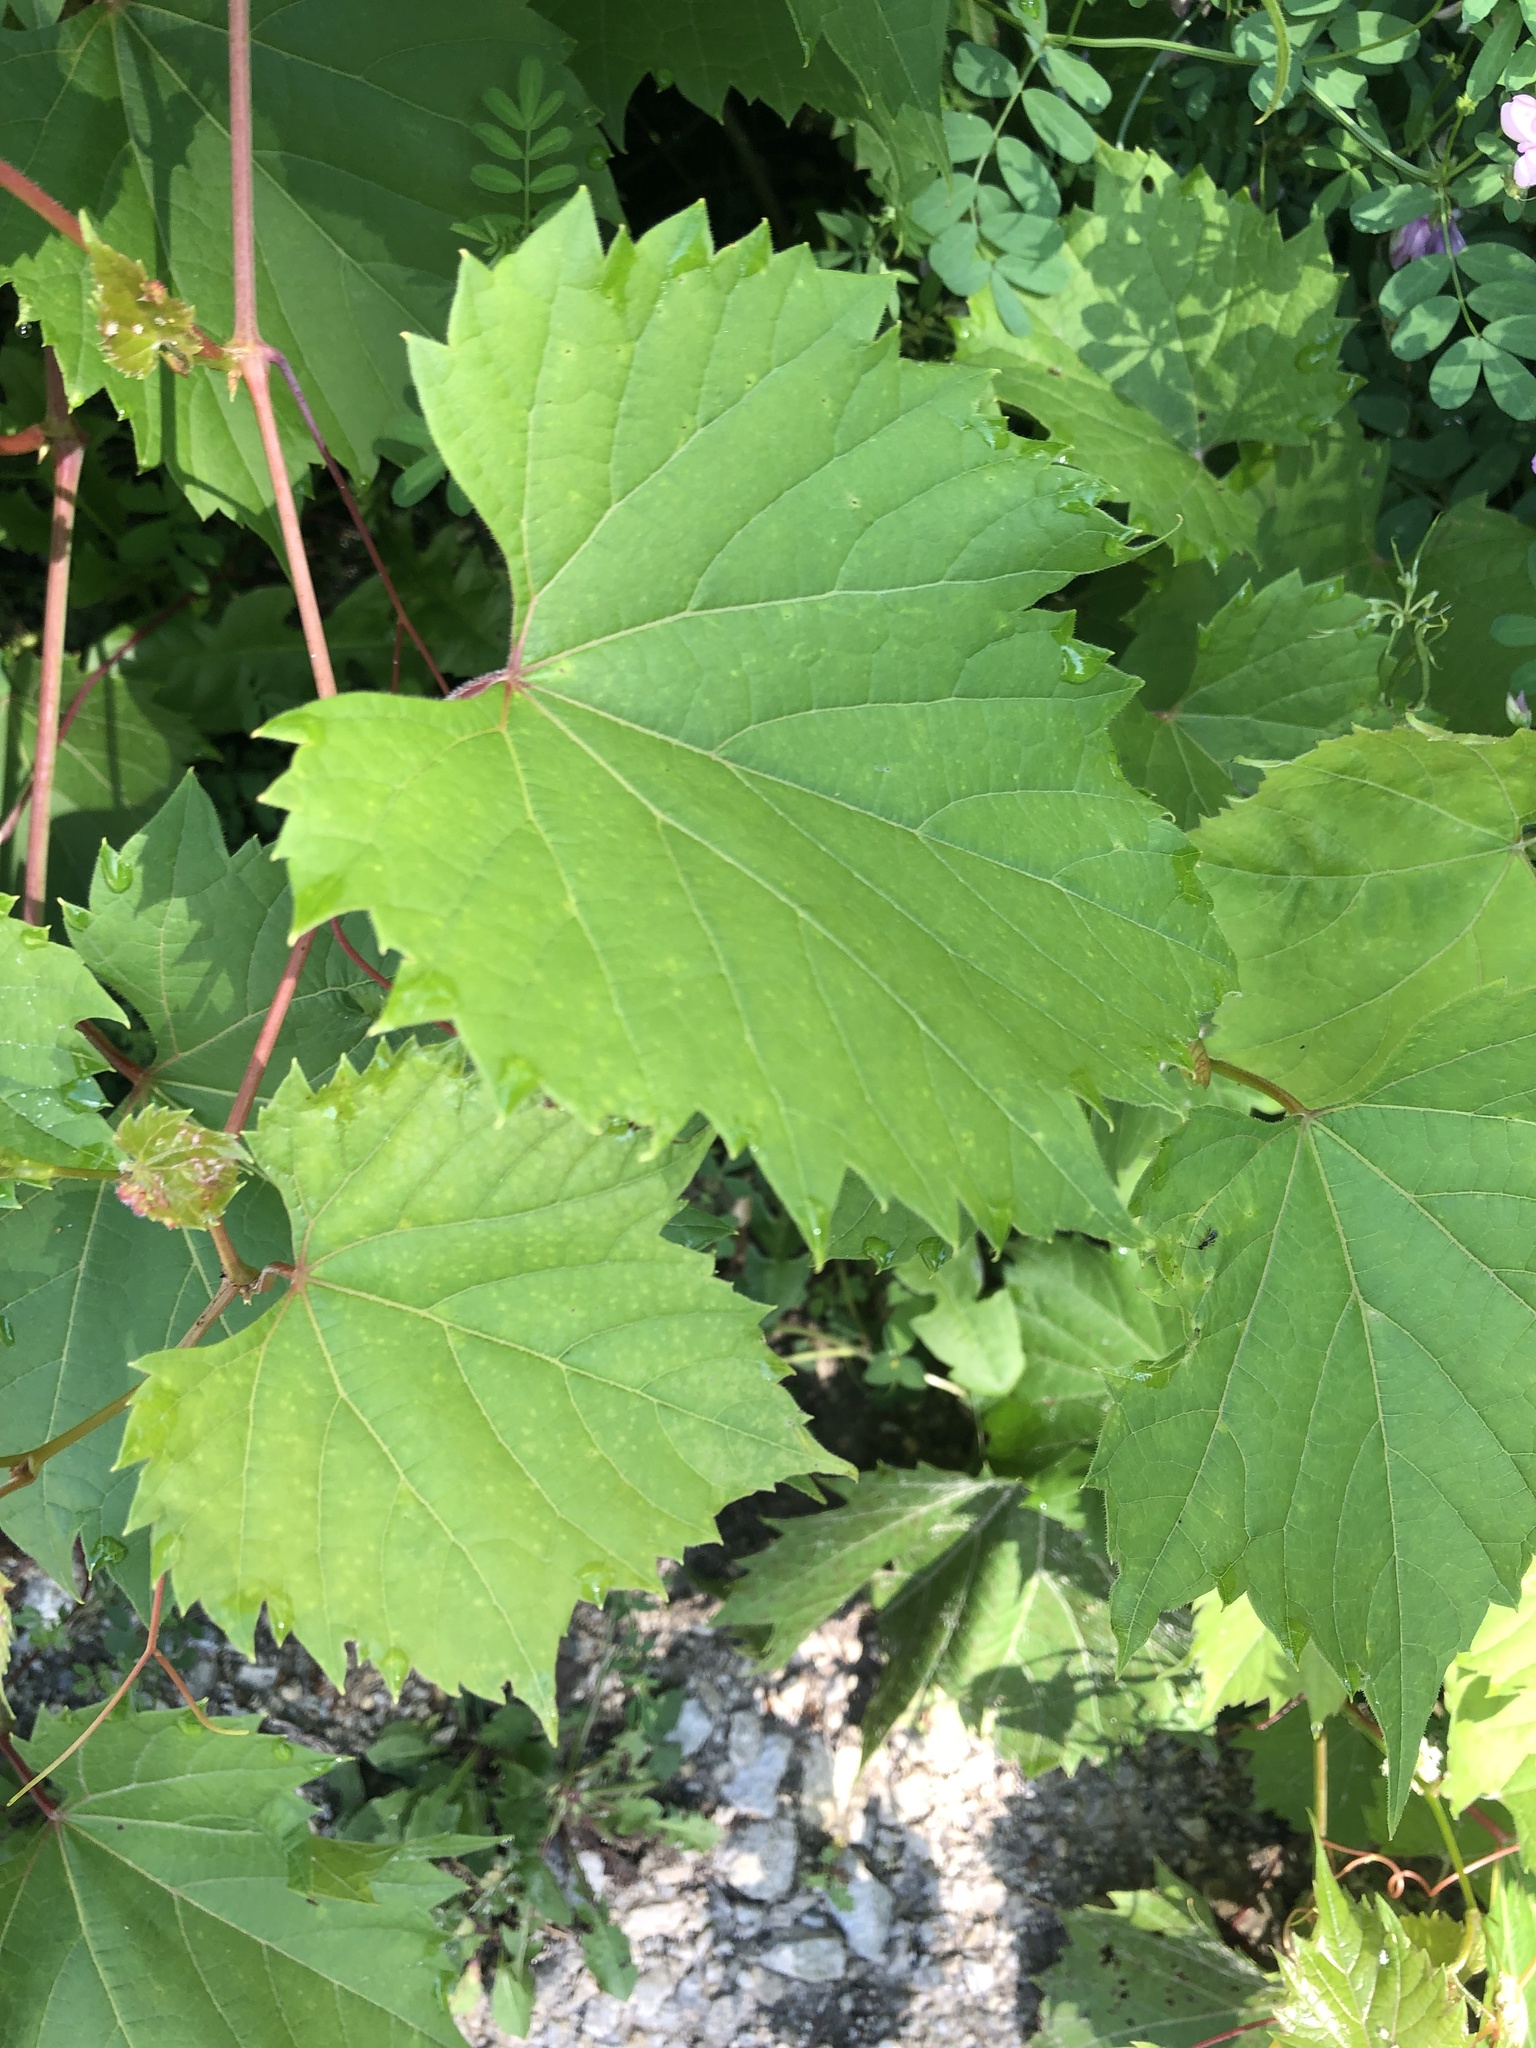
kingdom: Plantae
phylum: Tracheophyta
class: Magnoliopsida
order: Vitales
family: Vitaceae
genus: Vitis
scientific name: Vitis riparia
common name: Frost grape
